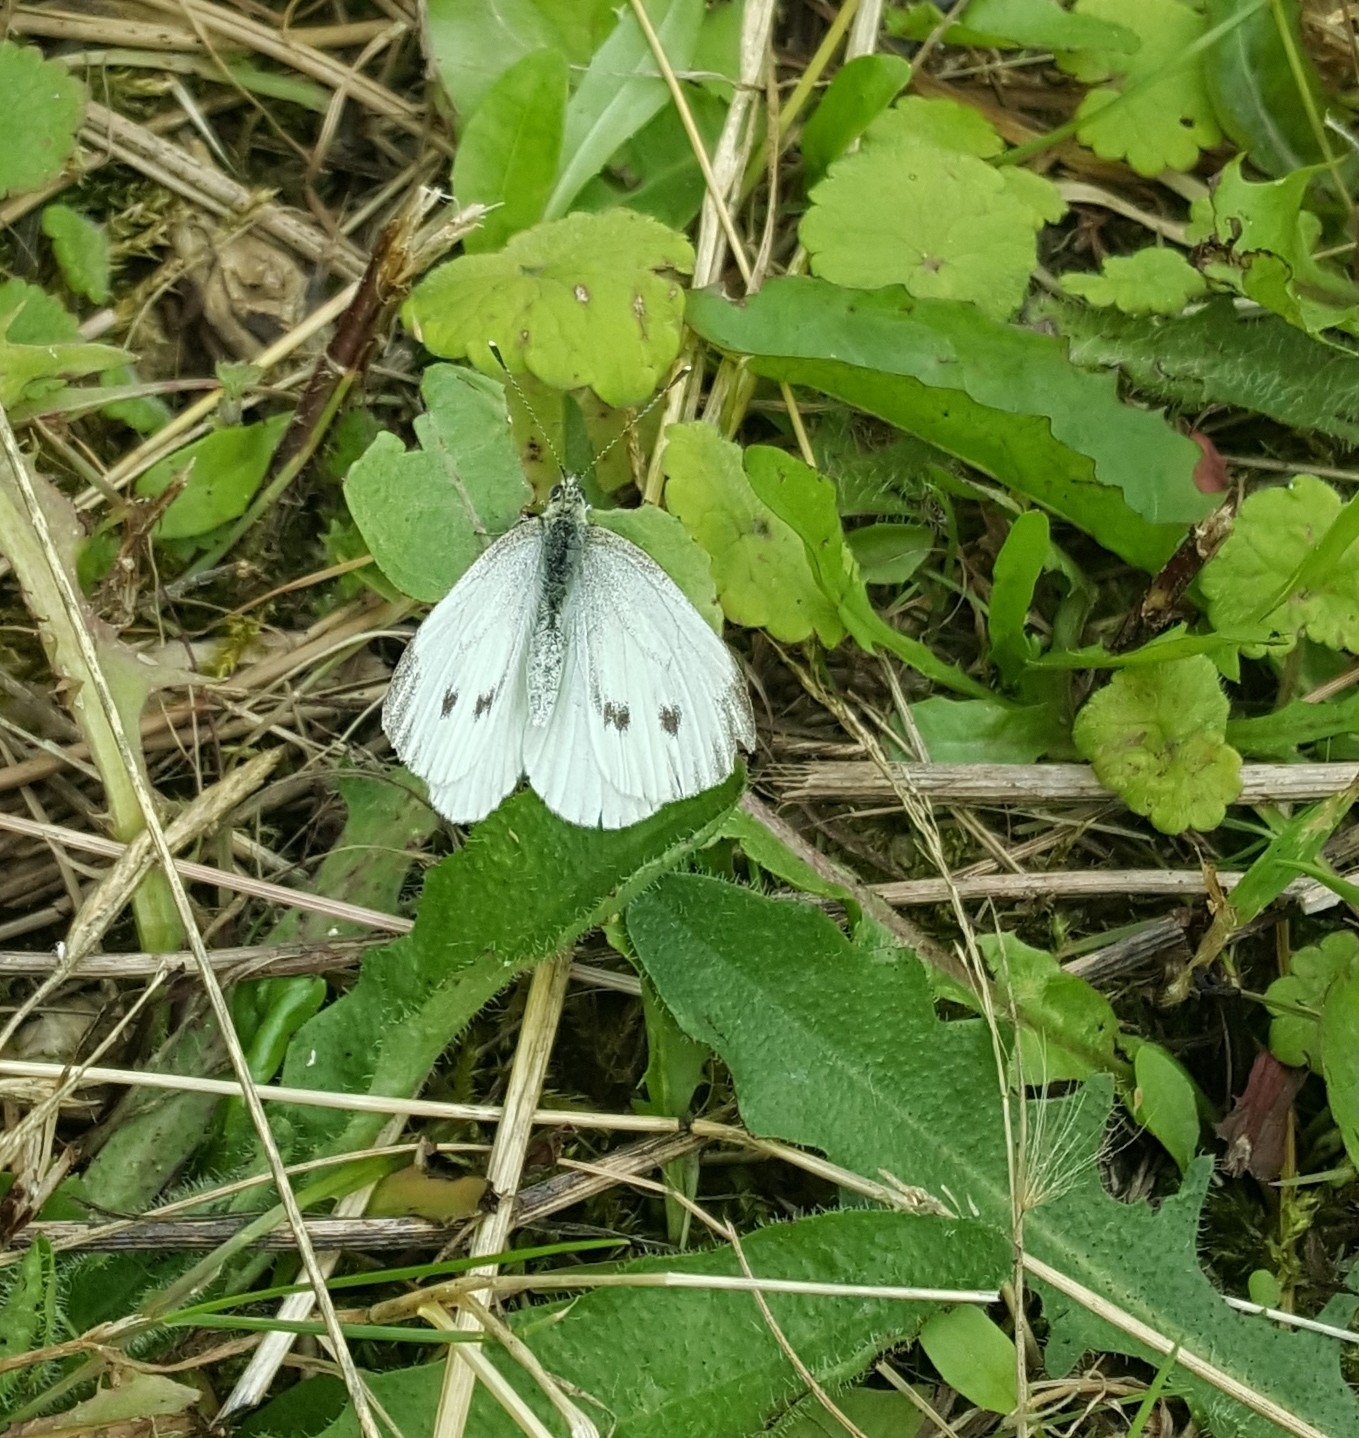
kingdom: Animalia
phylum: Arthropoda
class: Insecta
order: Lepidoptera
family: Pieridae
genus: Pieris
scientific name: Pieris napi
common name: Green-veined white
